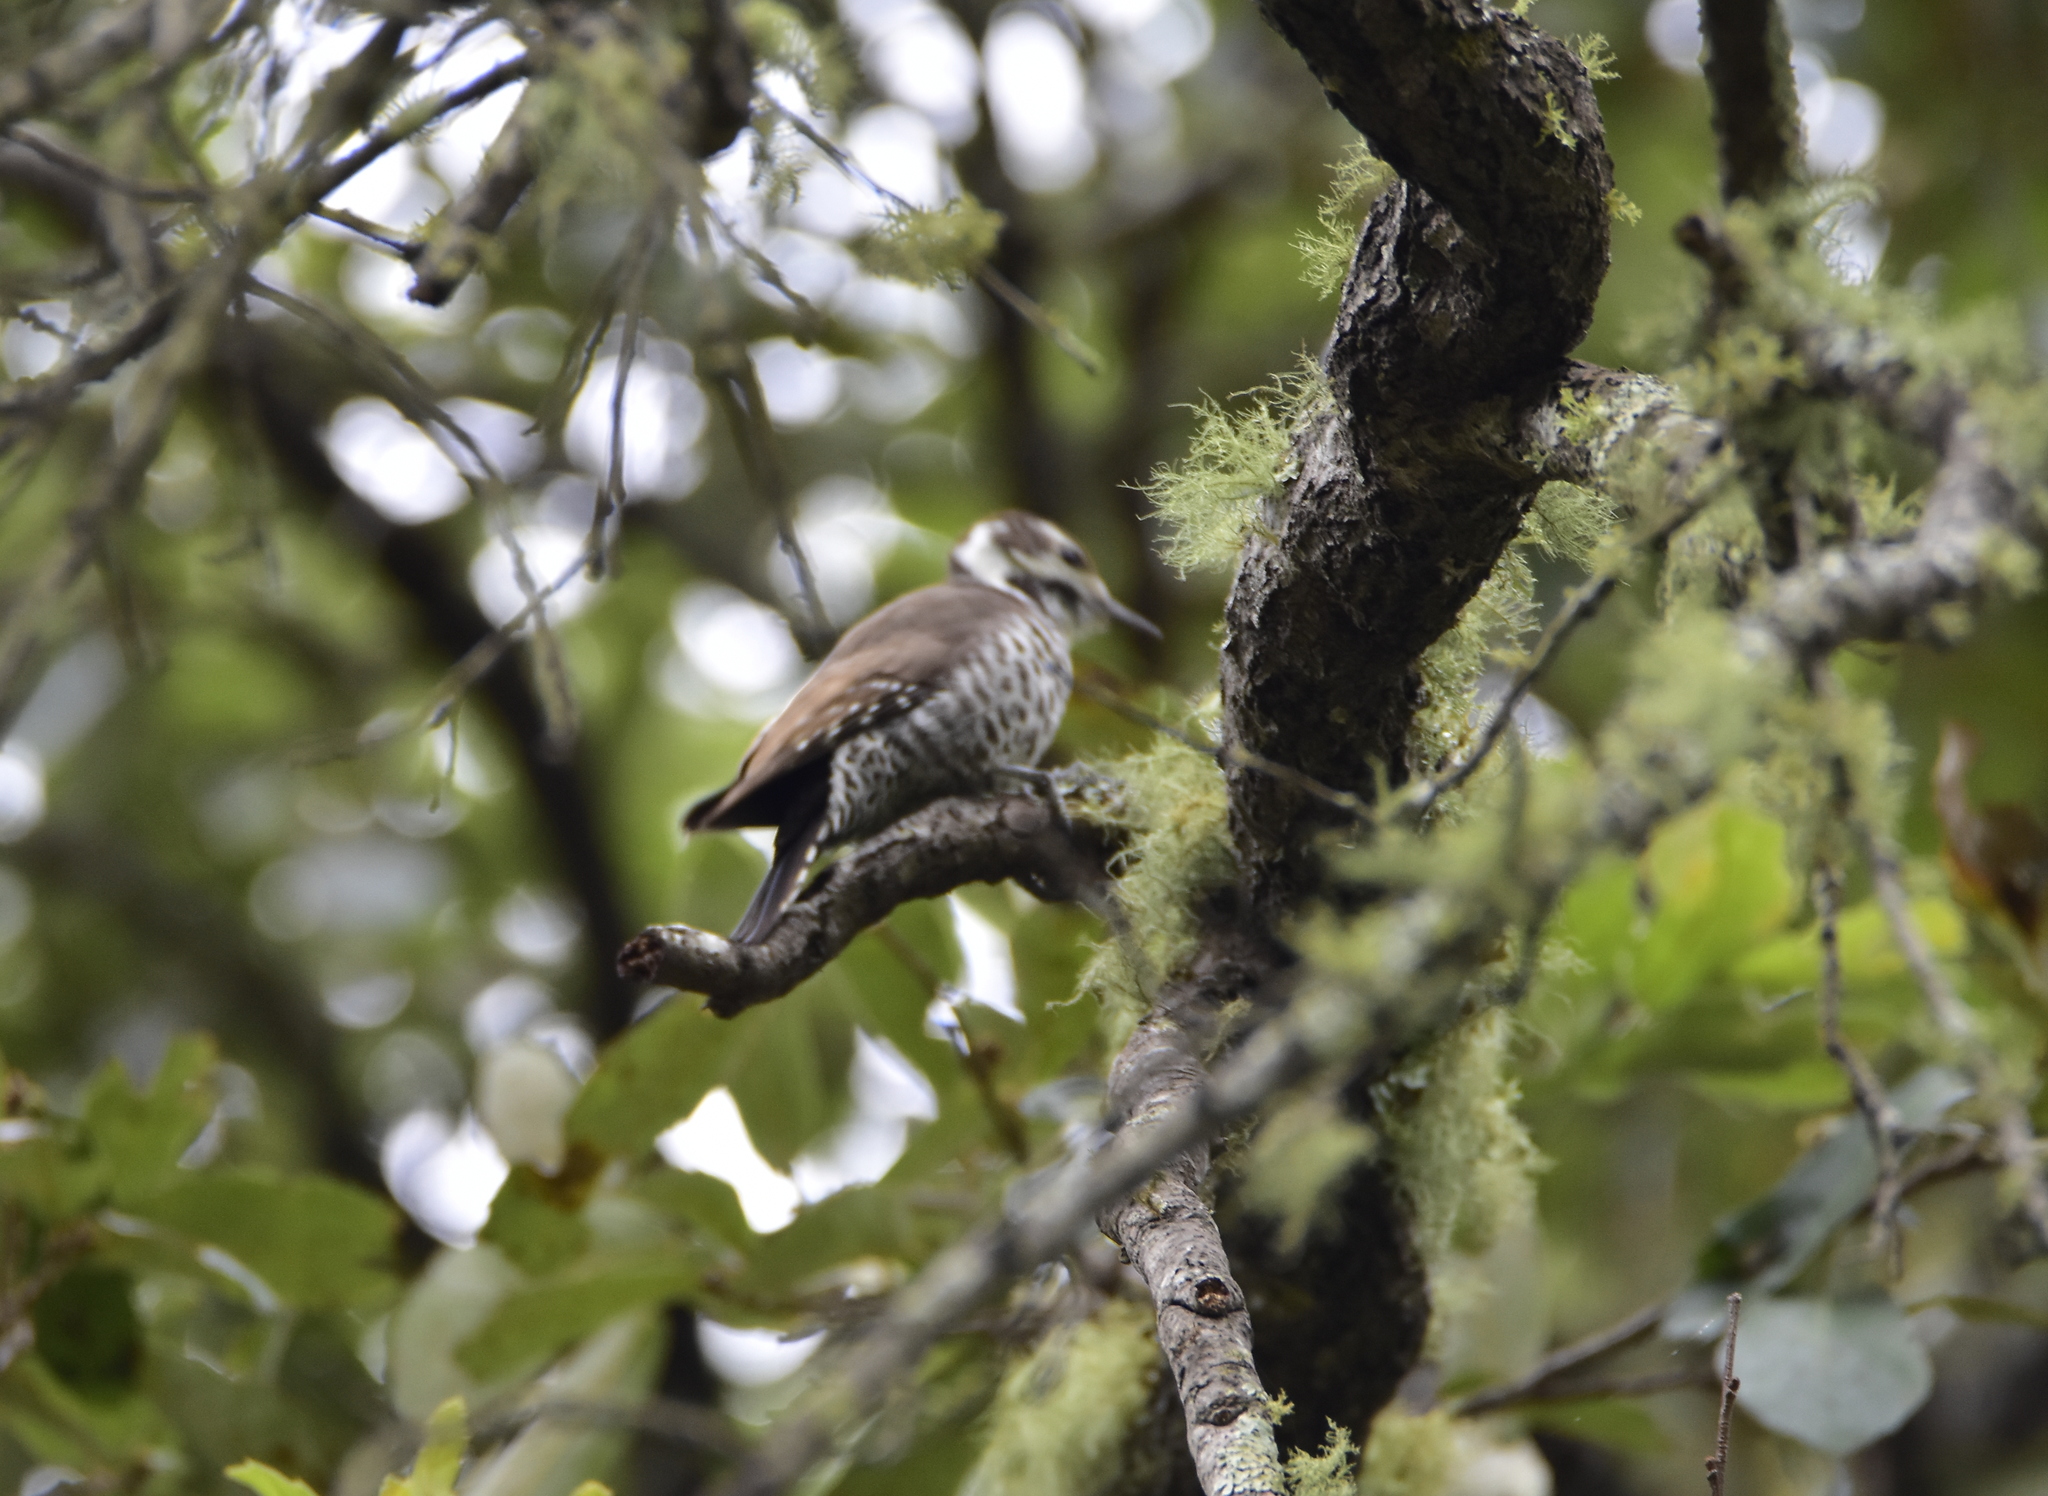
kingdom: Animalia
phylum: Chordata
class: Aves
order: Piciformes
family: Picidae
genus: Leuconotopicus
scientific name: Leuconotopicus arizonae
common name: Arizona woodpecker
